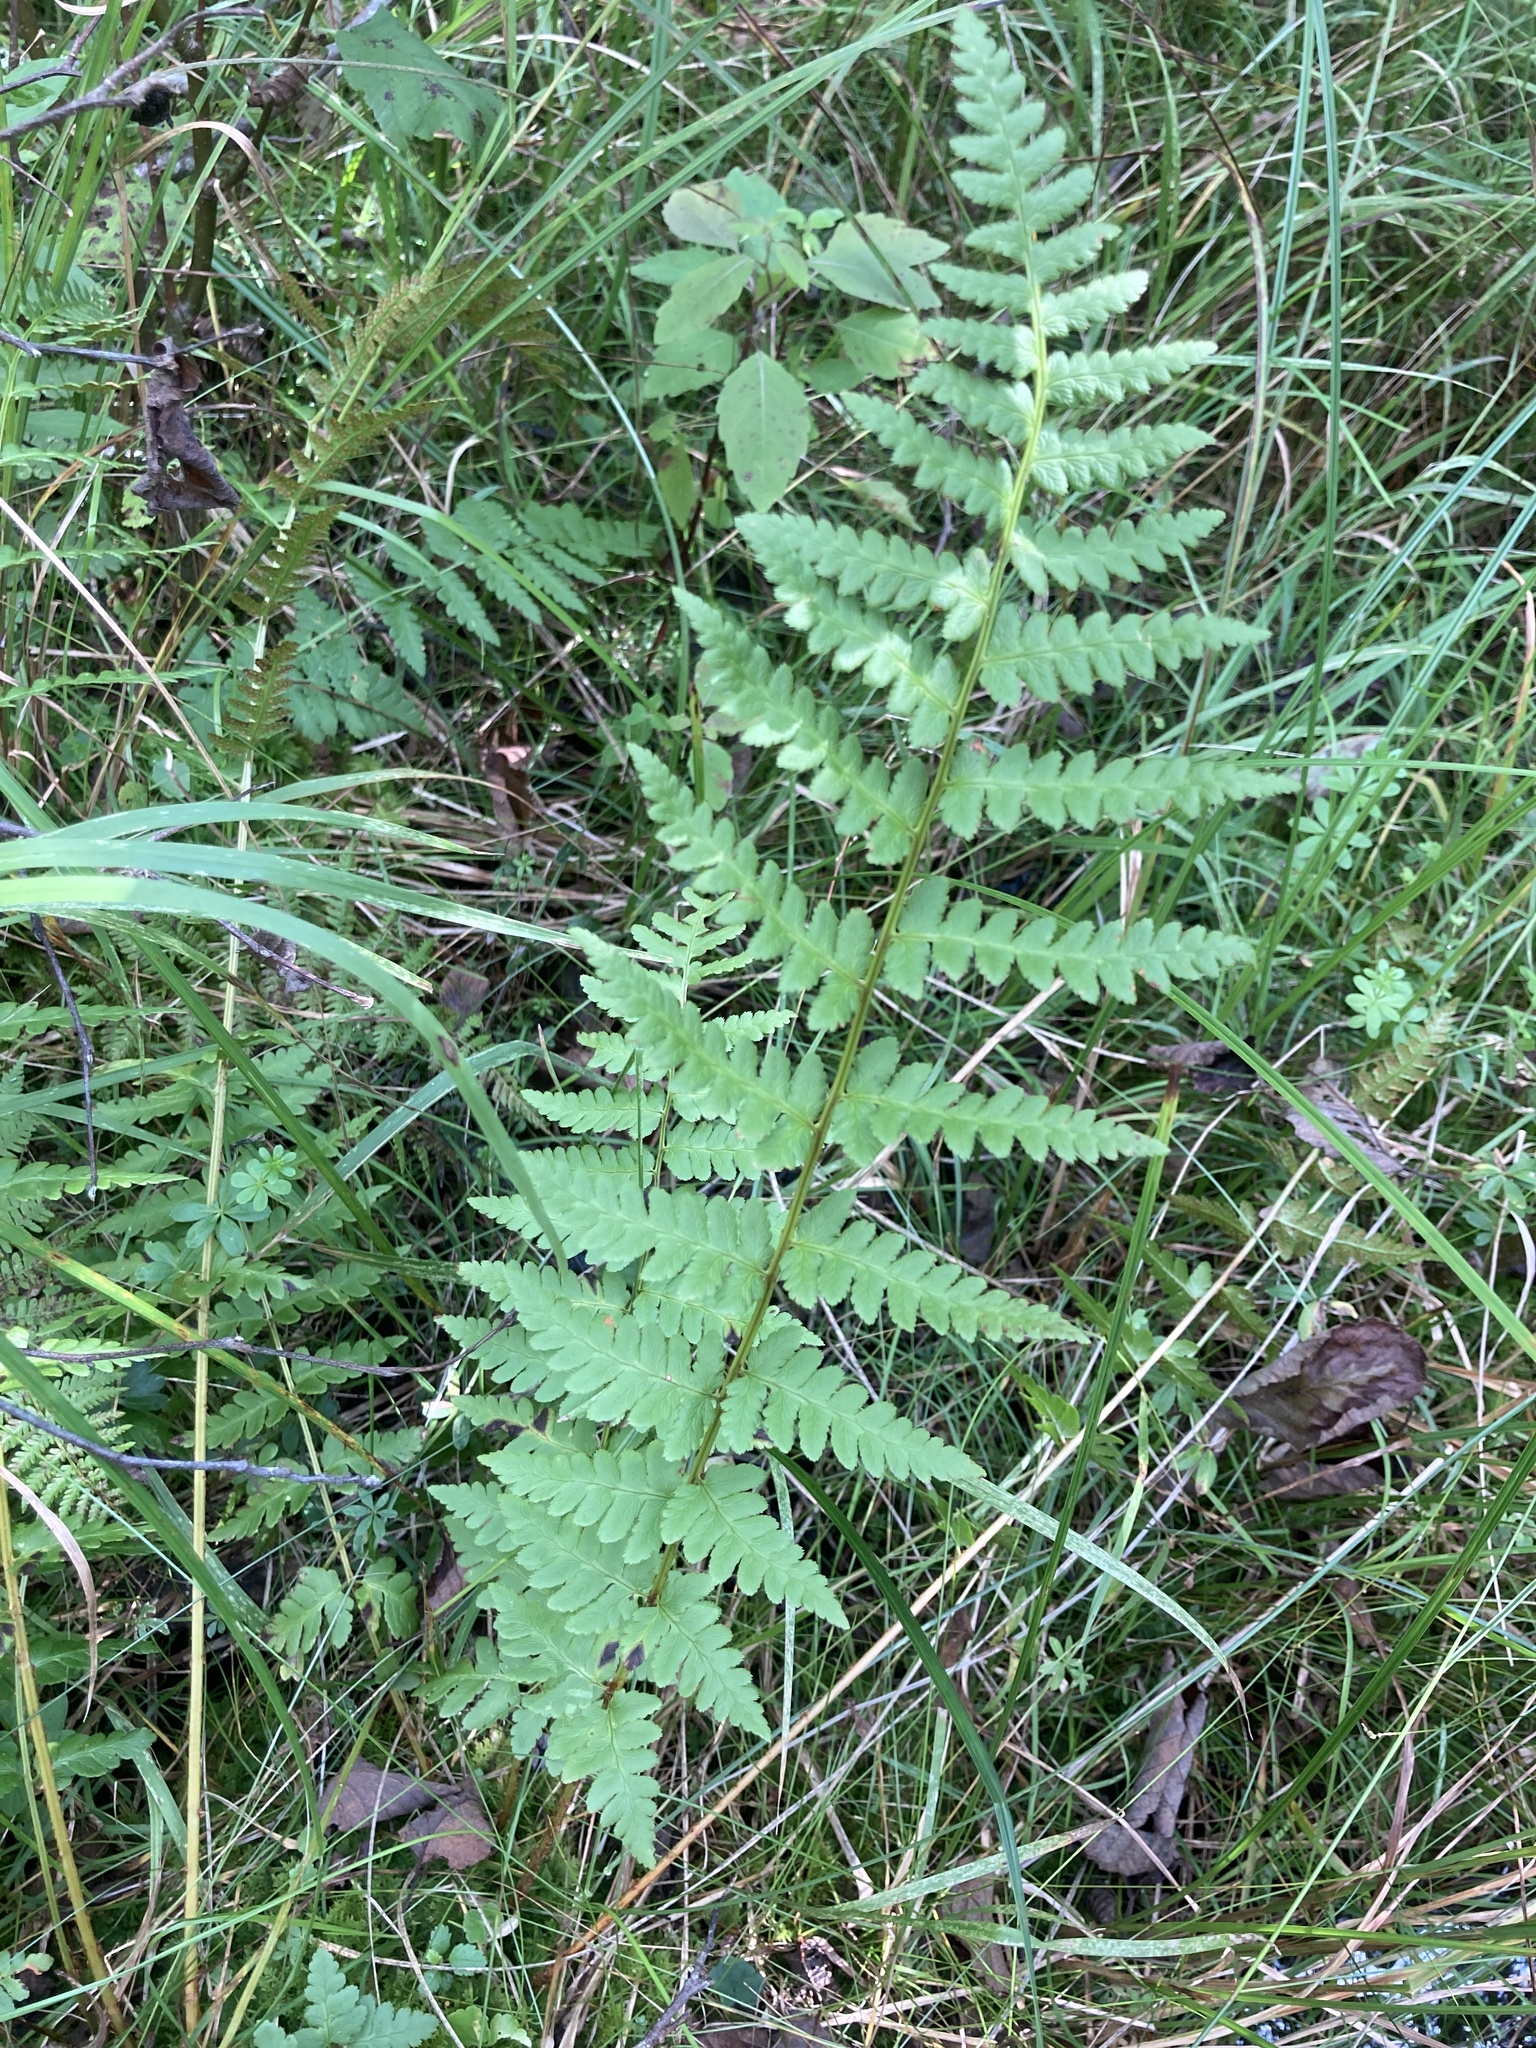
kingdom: Plantae
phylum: Tracheophyta
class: Polypodiopsida
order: Polypodiales
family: Dryopteridaceae
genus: Dryopteris
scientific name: Dryopteris cristata
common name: Crested wood fern
